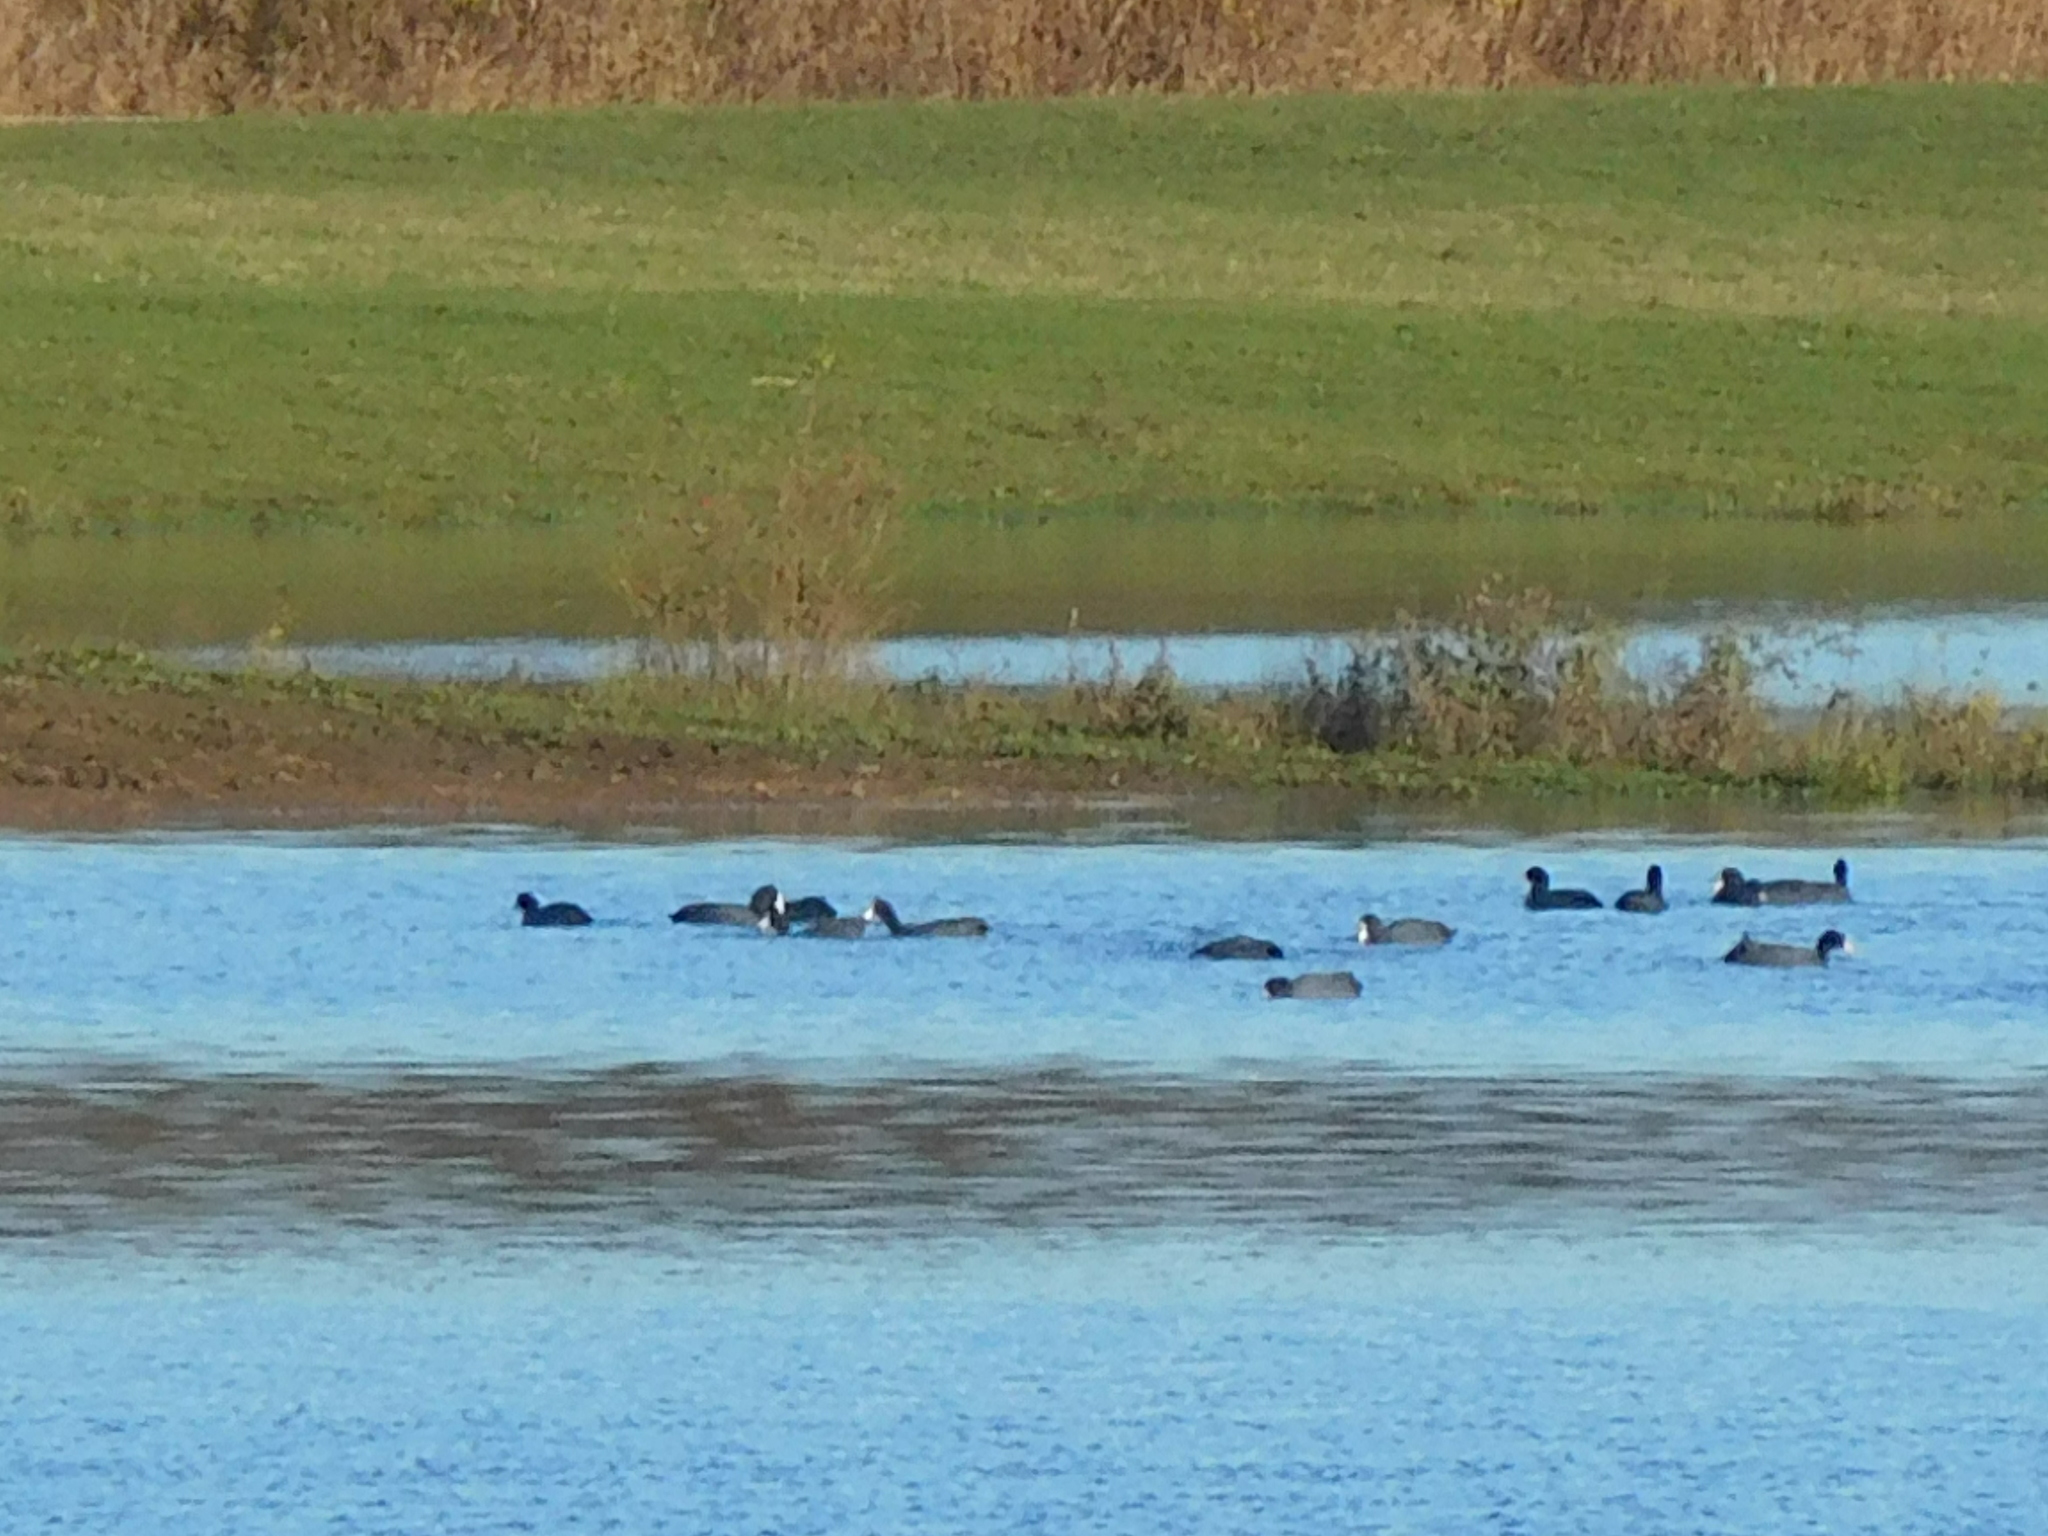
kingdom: Animalia
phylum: Chordata
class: Aves
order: Gruiformes
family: Rallidae
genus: Fulica
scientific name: Fulica atra
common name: Eurasian coot
